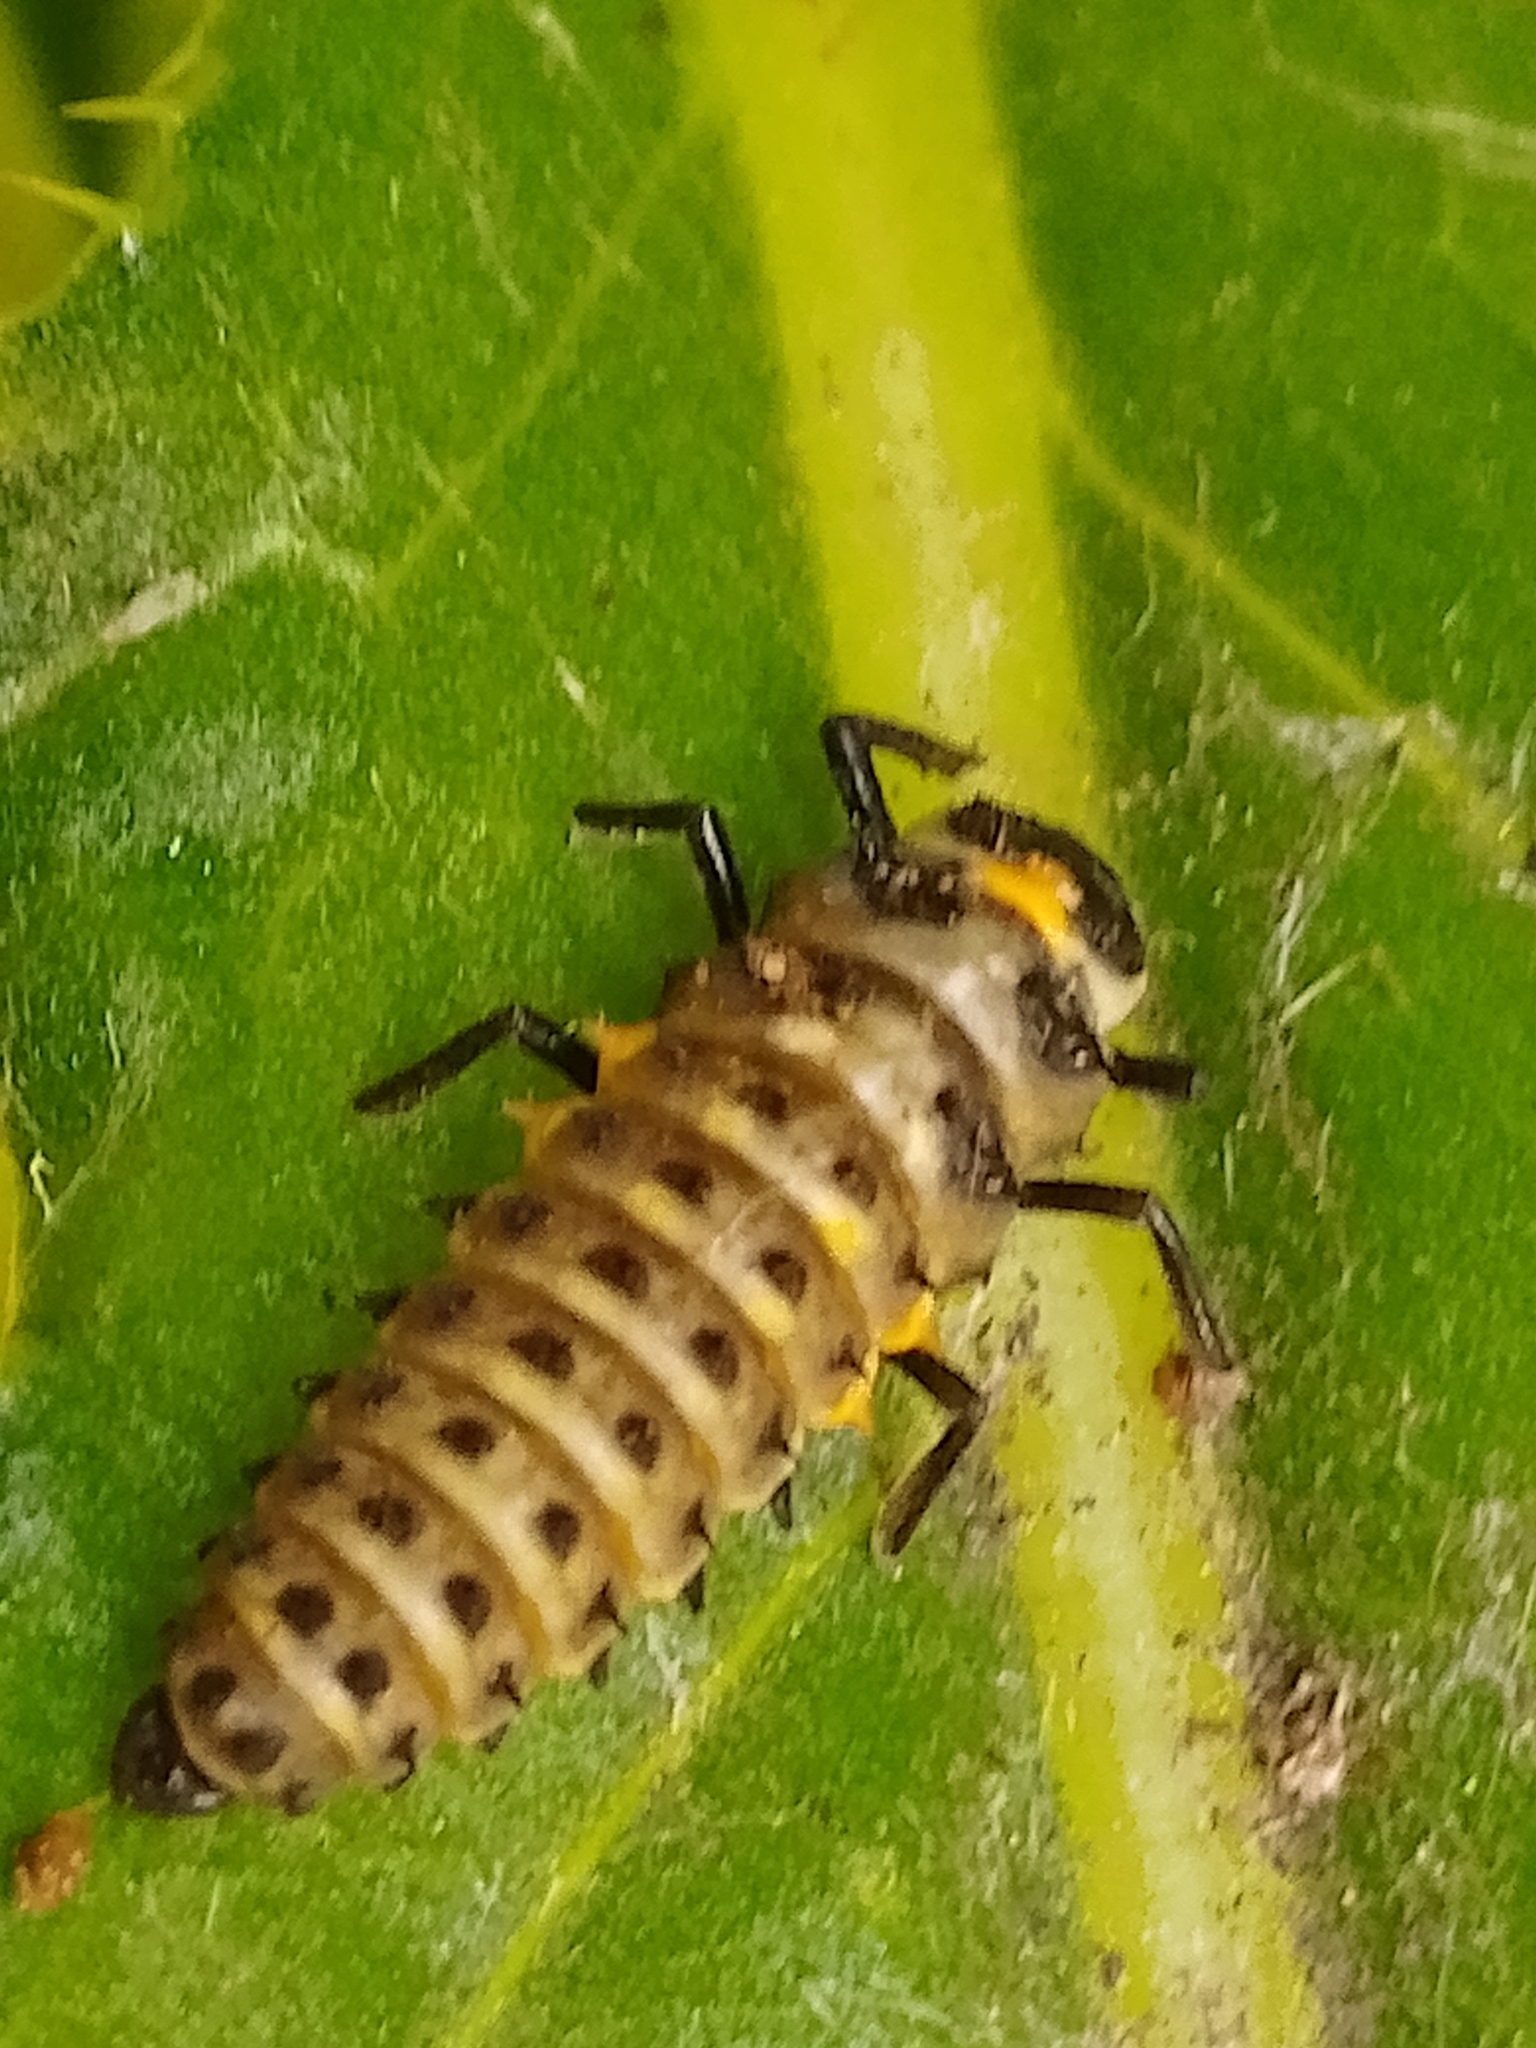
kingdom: Animalia
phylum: Arthropoda
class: Insecta
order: Coleoptera
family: Coccinellidae
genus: Anatis
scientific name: Anatis ocellata
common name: Eyed ladybird
